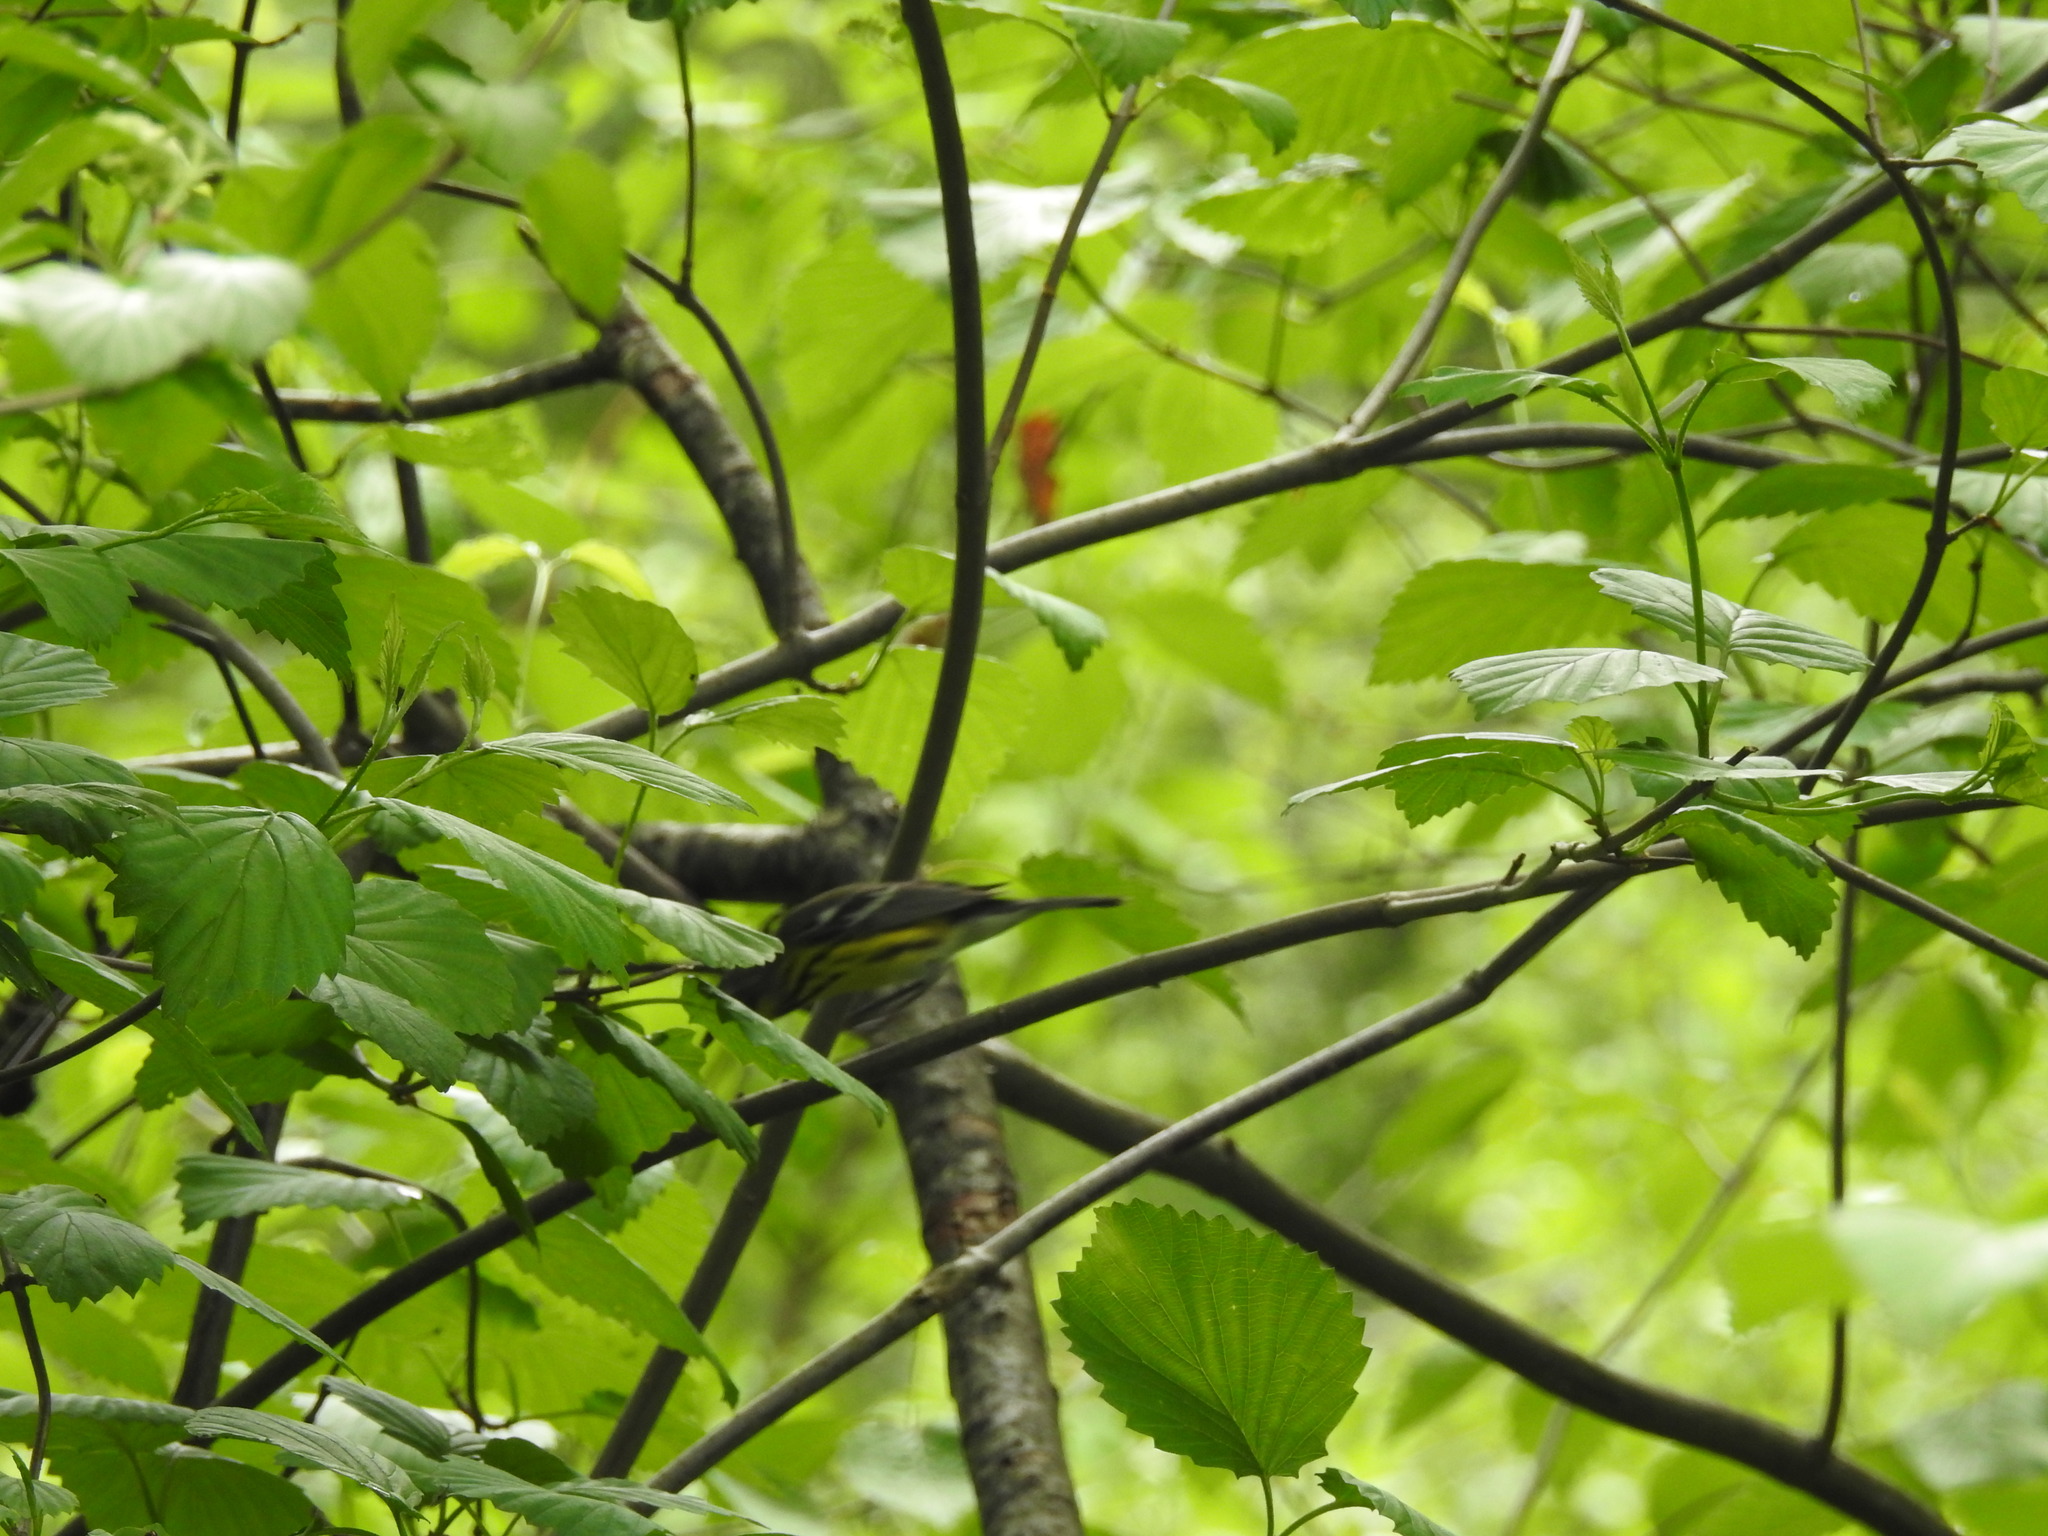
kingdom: Animalia
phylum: Chordata
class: Aves
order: Passeriformes
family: Parulidae
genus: Setophaga
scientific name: Setophaga magnolia
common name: Magnolia warbler
